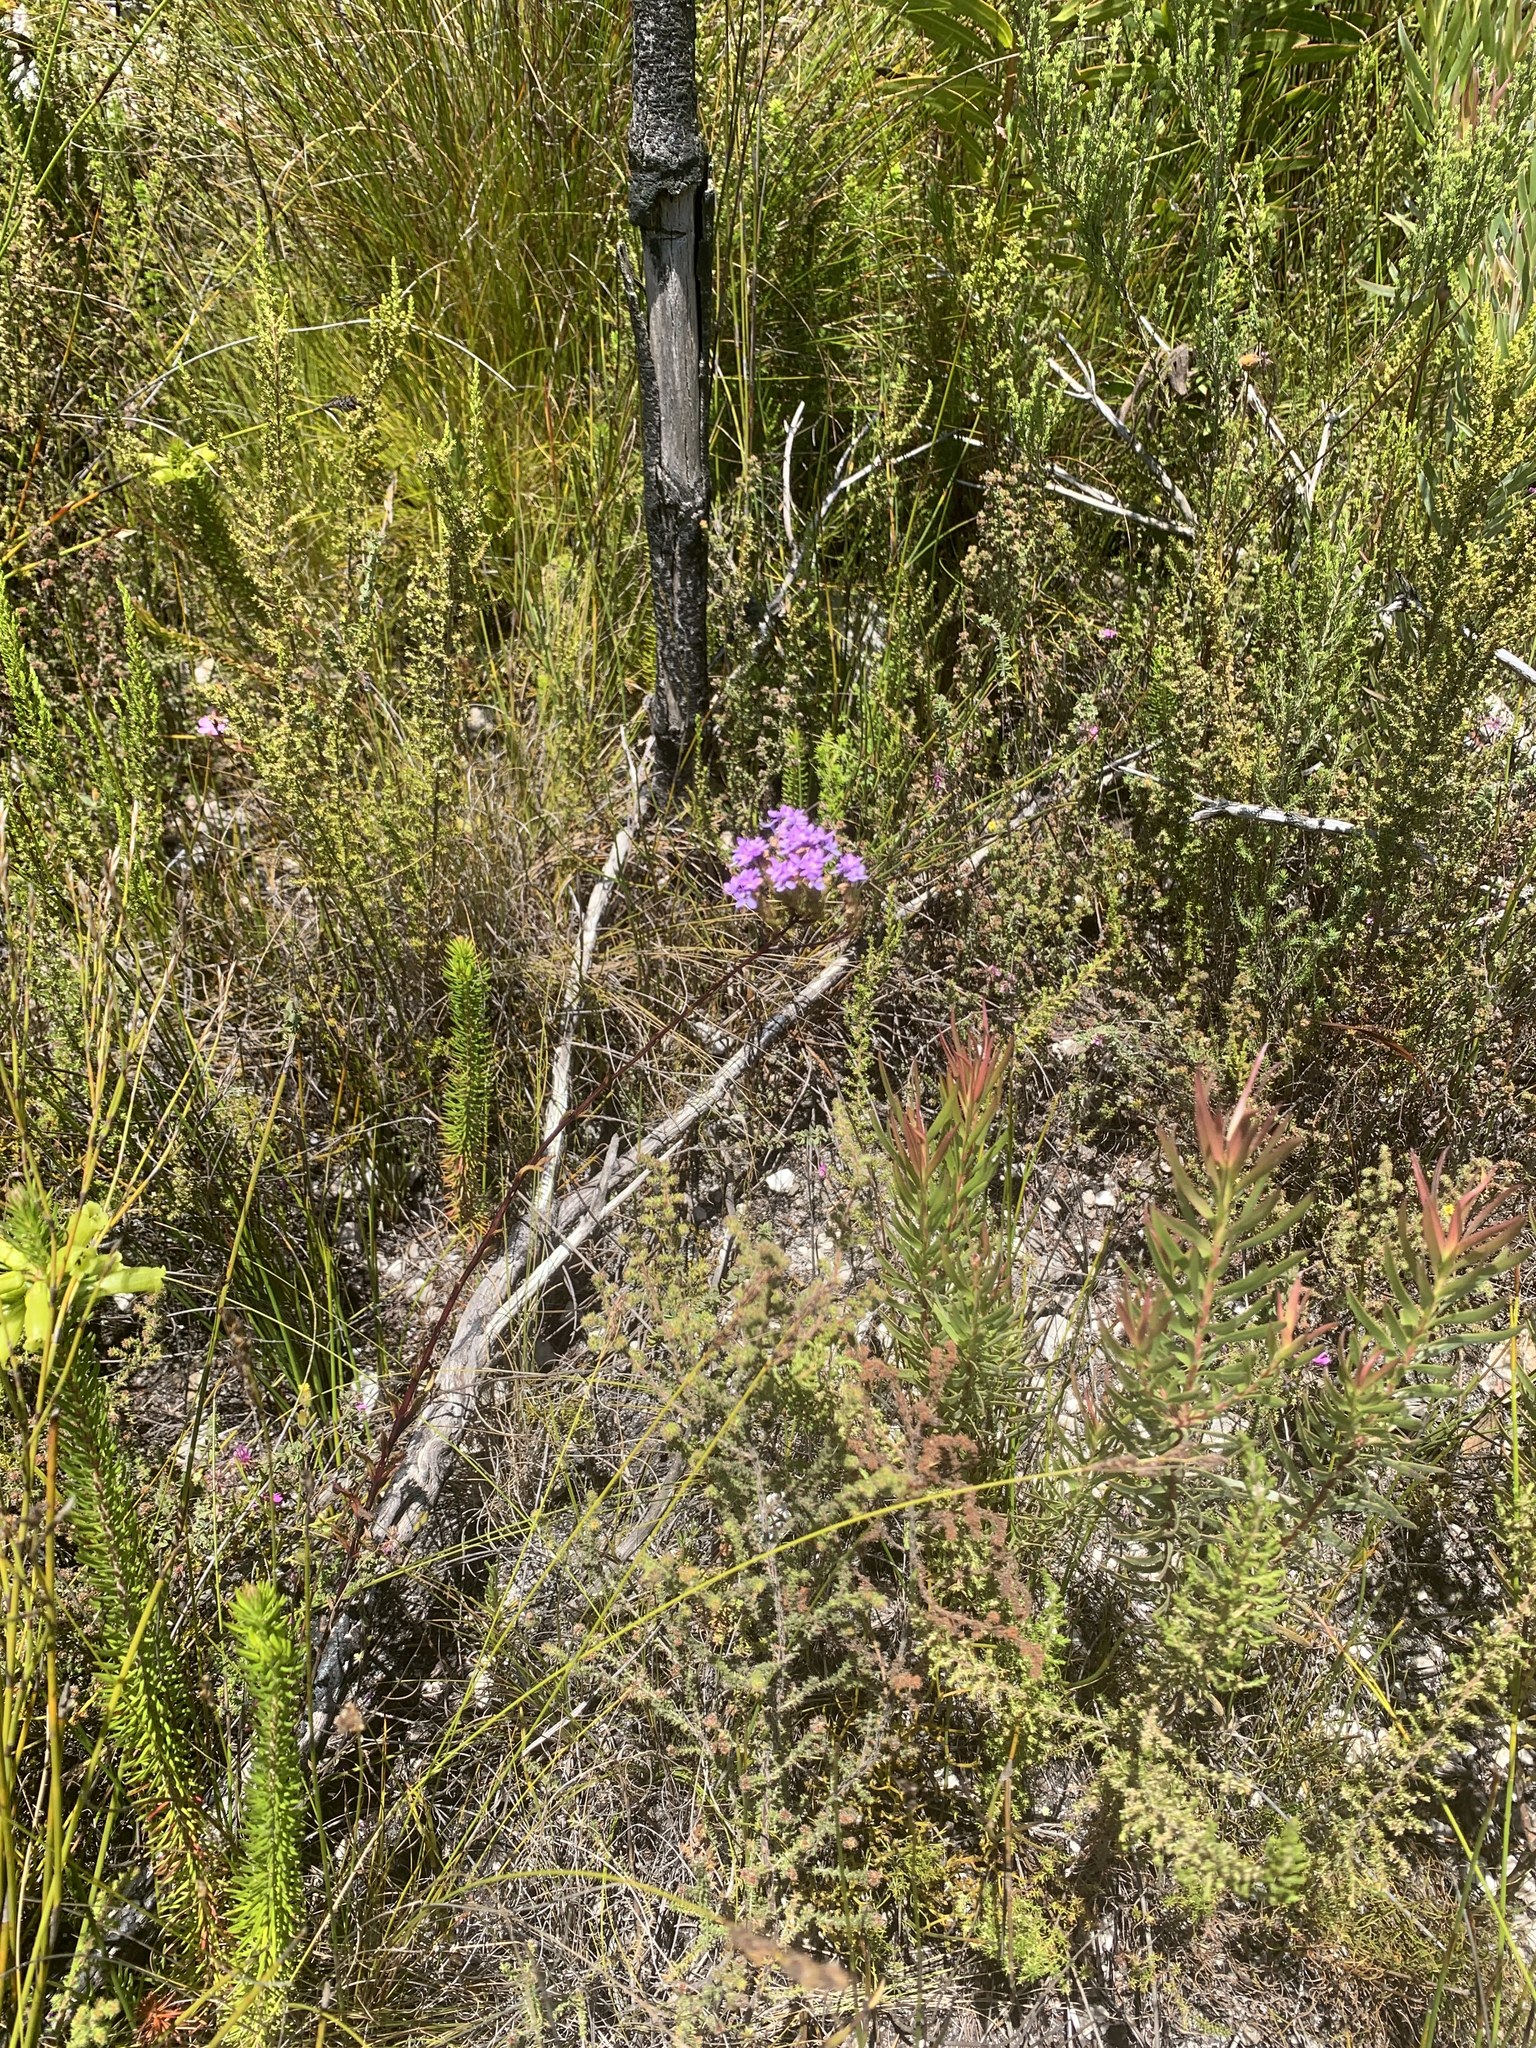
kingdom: Plantae
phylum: Tracheophyta
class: Magnoliopsida
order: Lamiales
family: Scrophulariaceae
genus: Pseudoselago
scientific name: Pseudoselago verbenacea
